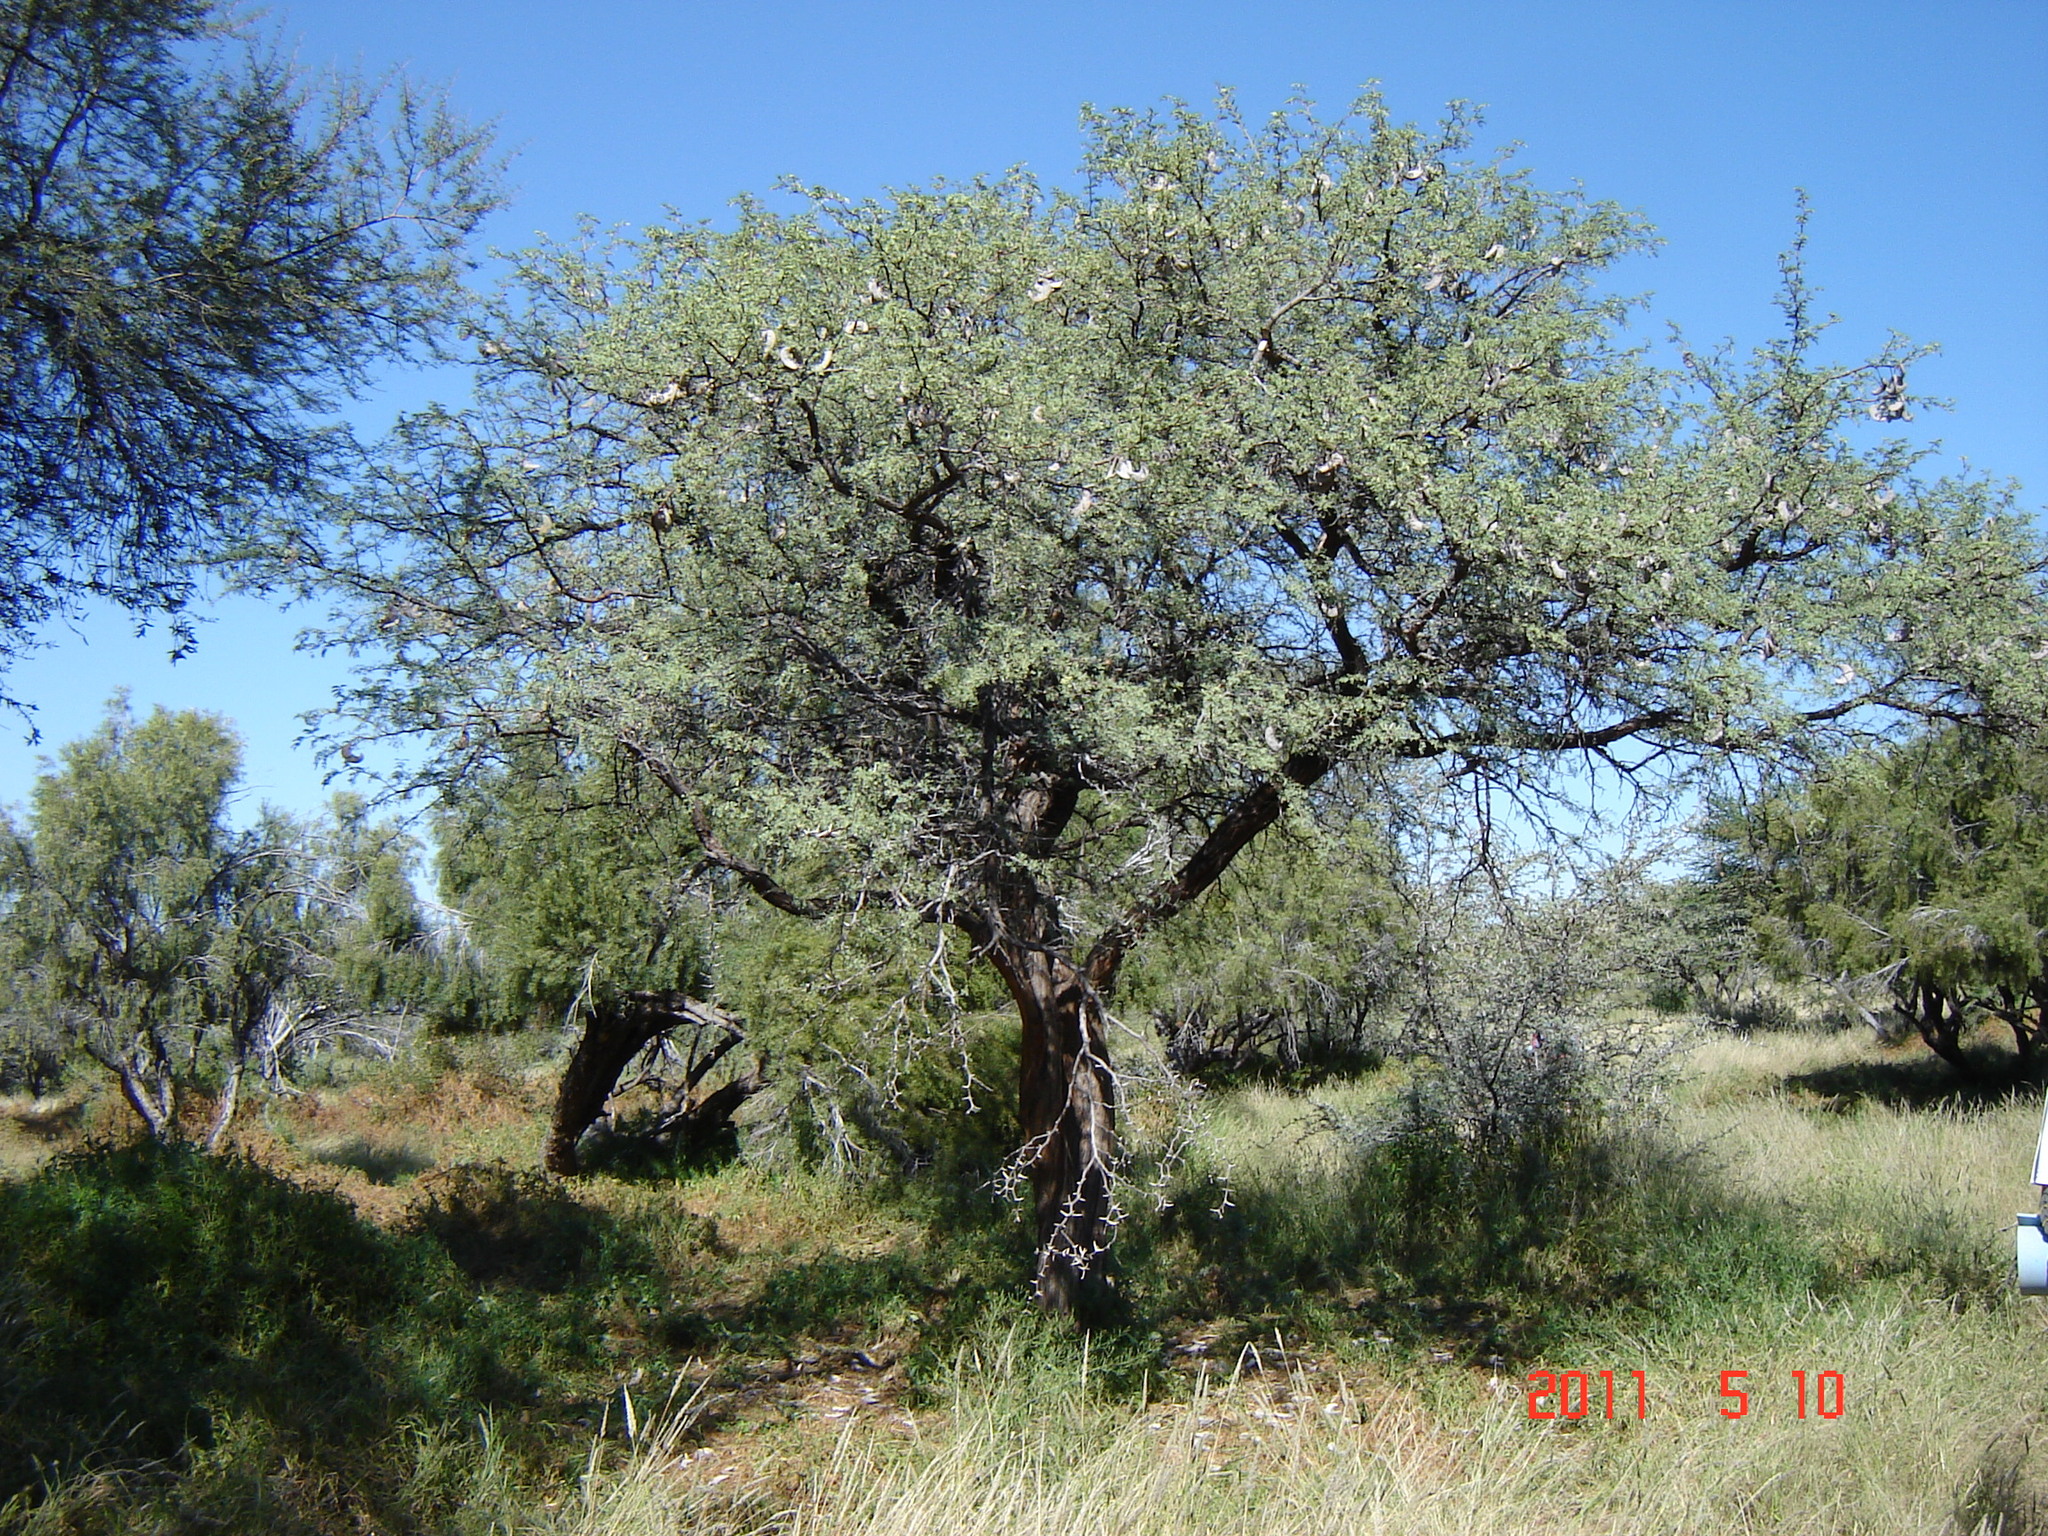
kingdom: Plantae
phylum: Tracheophyta
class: Magnoliopsida
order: Fabales
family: Fabaceae
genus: Vachellia
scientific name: Vachellia erioloba
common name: Camel thorn
